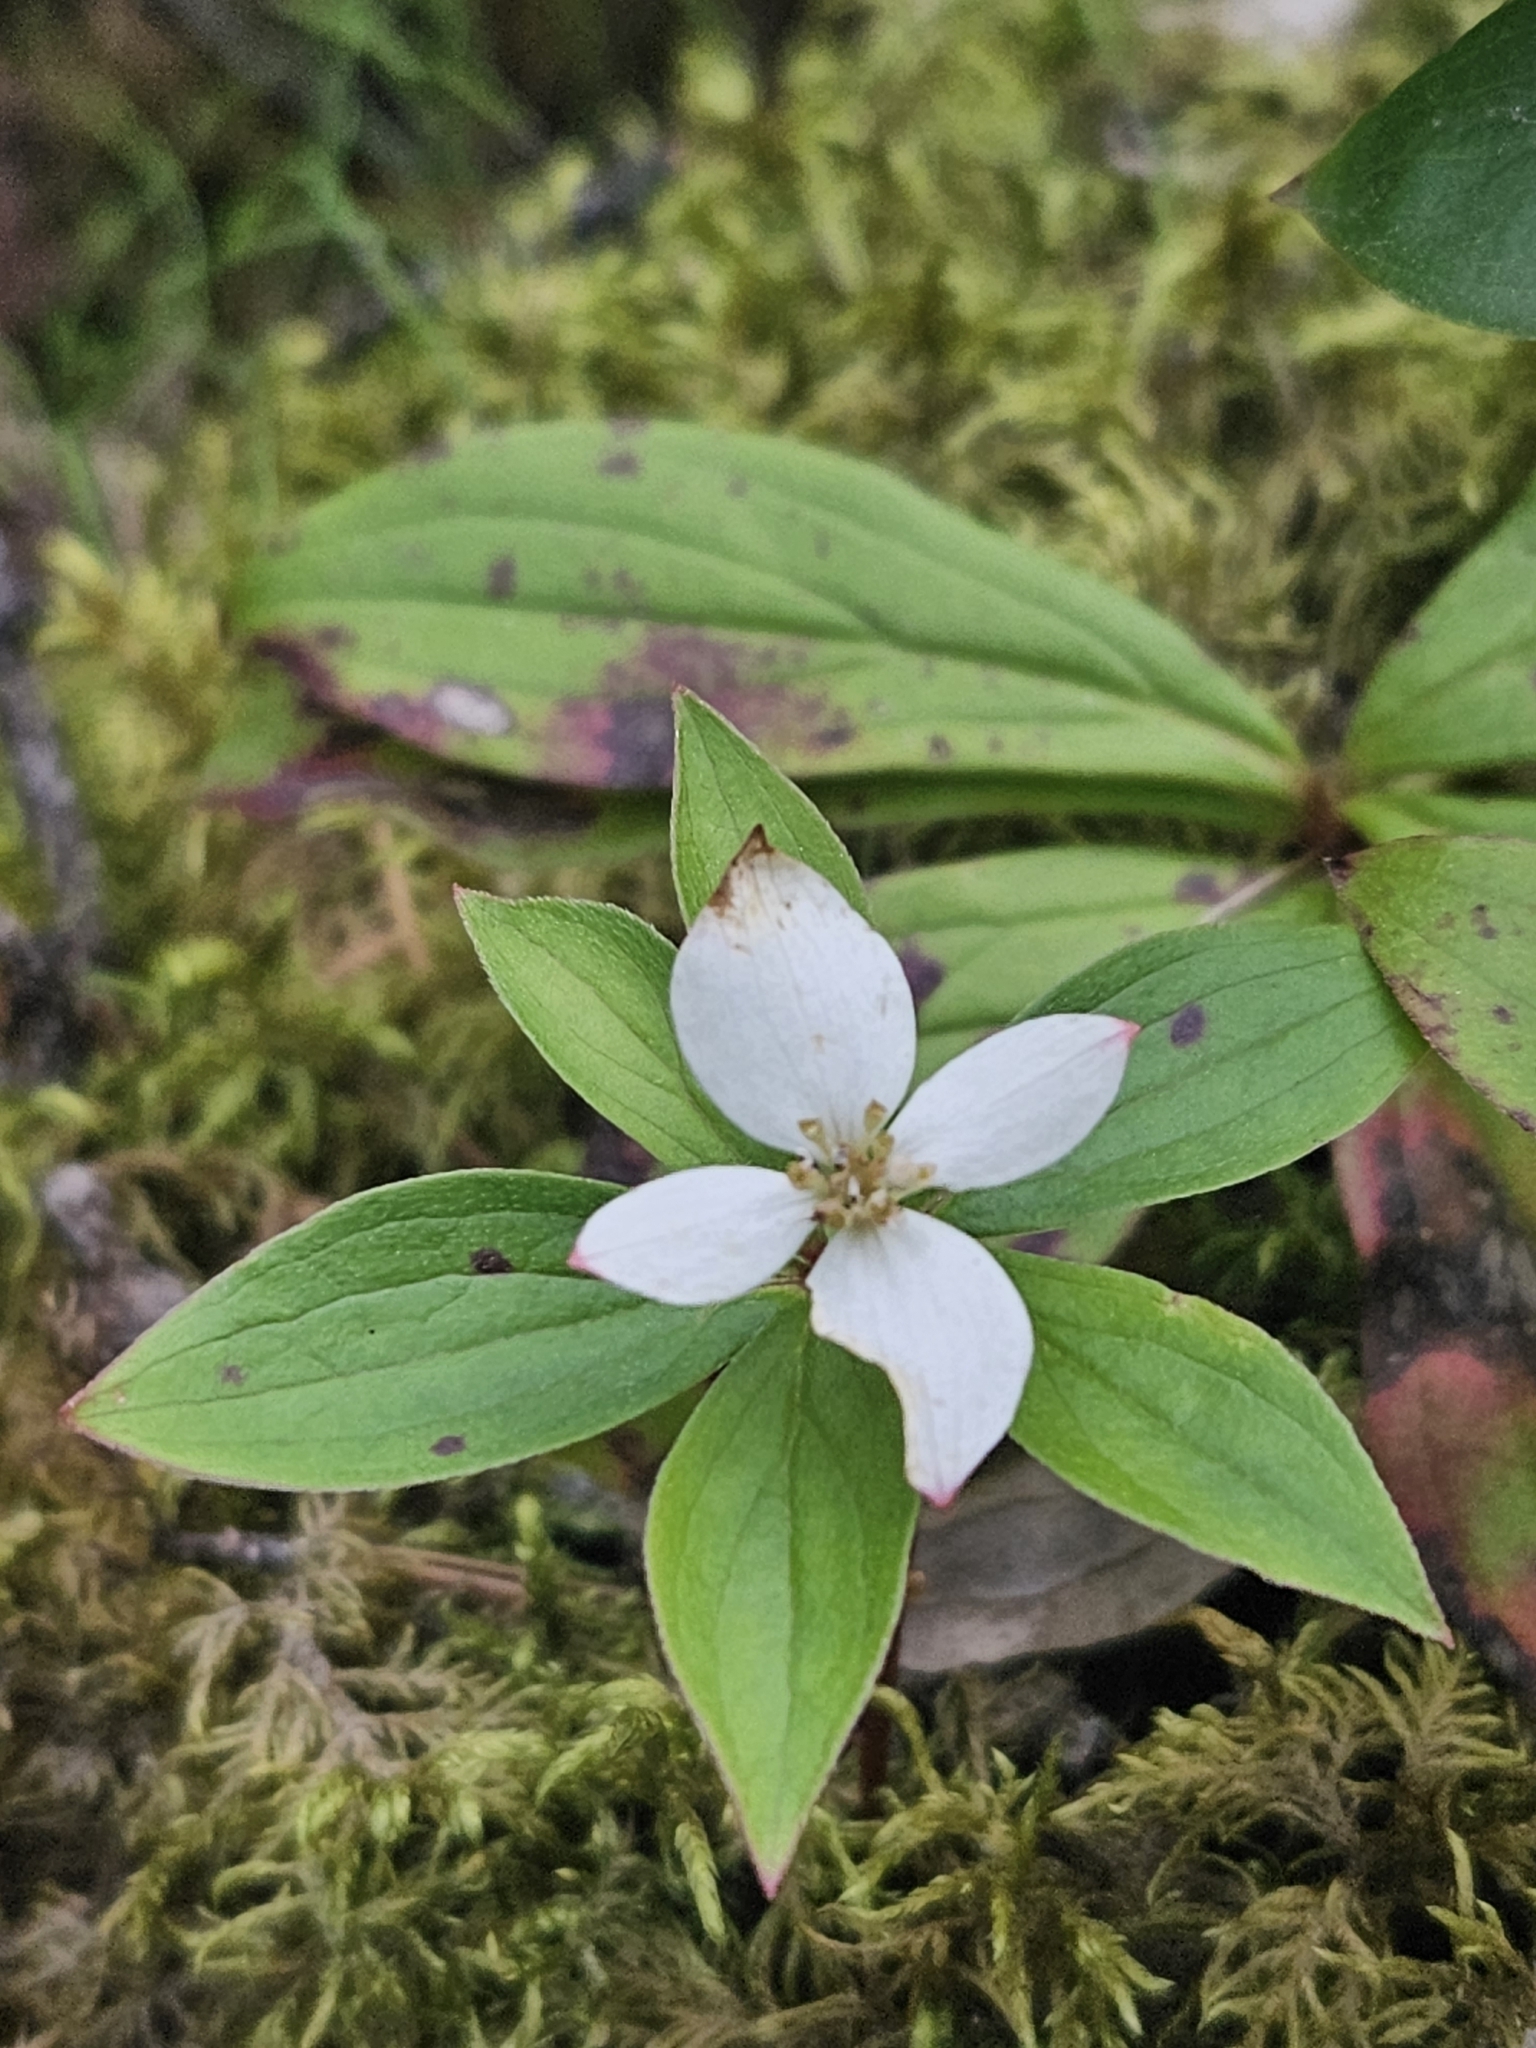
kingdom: Plantae
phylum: Tracheophyta
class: Magnoliopsida
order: Cornales
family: Cornaceae
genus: Cornus
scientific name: Cornus canadensis
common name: Creeping dogwood
